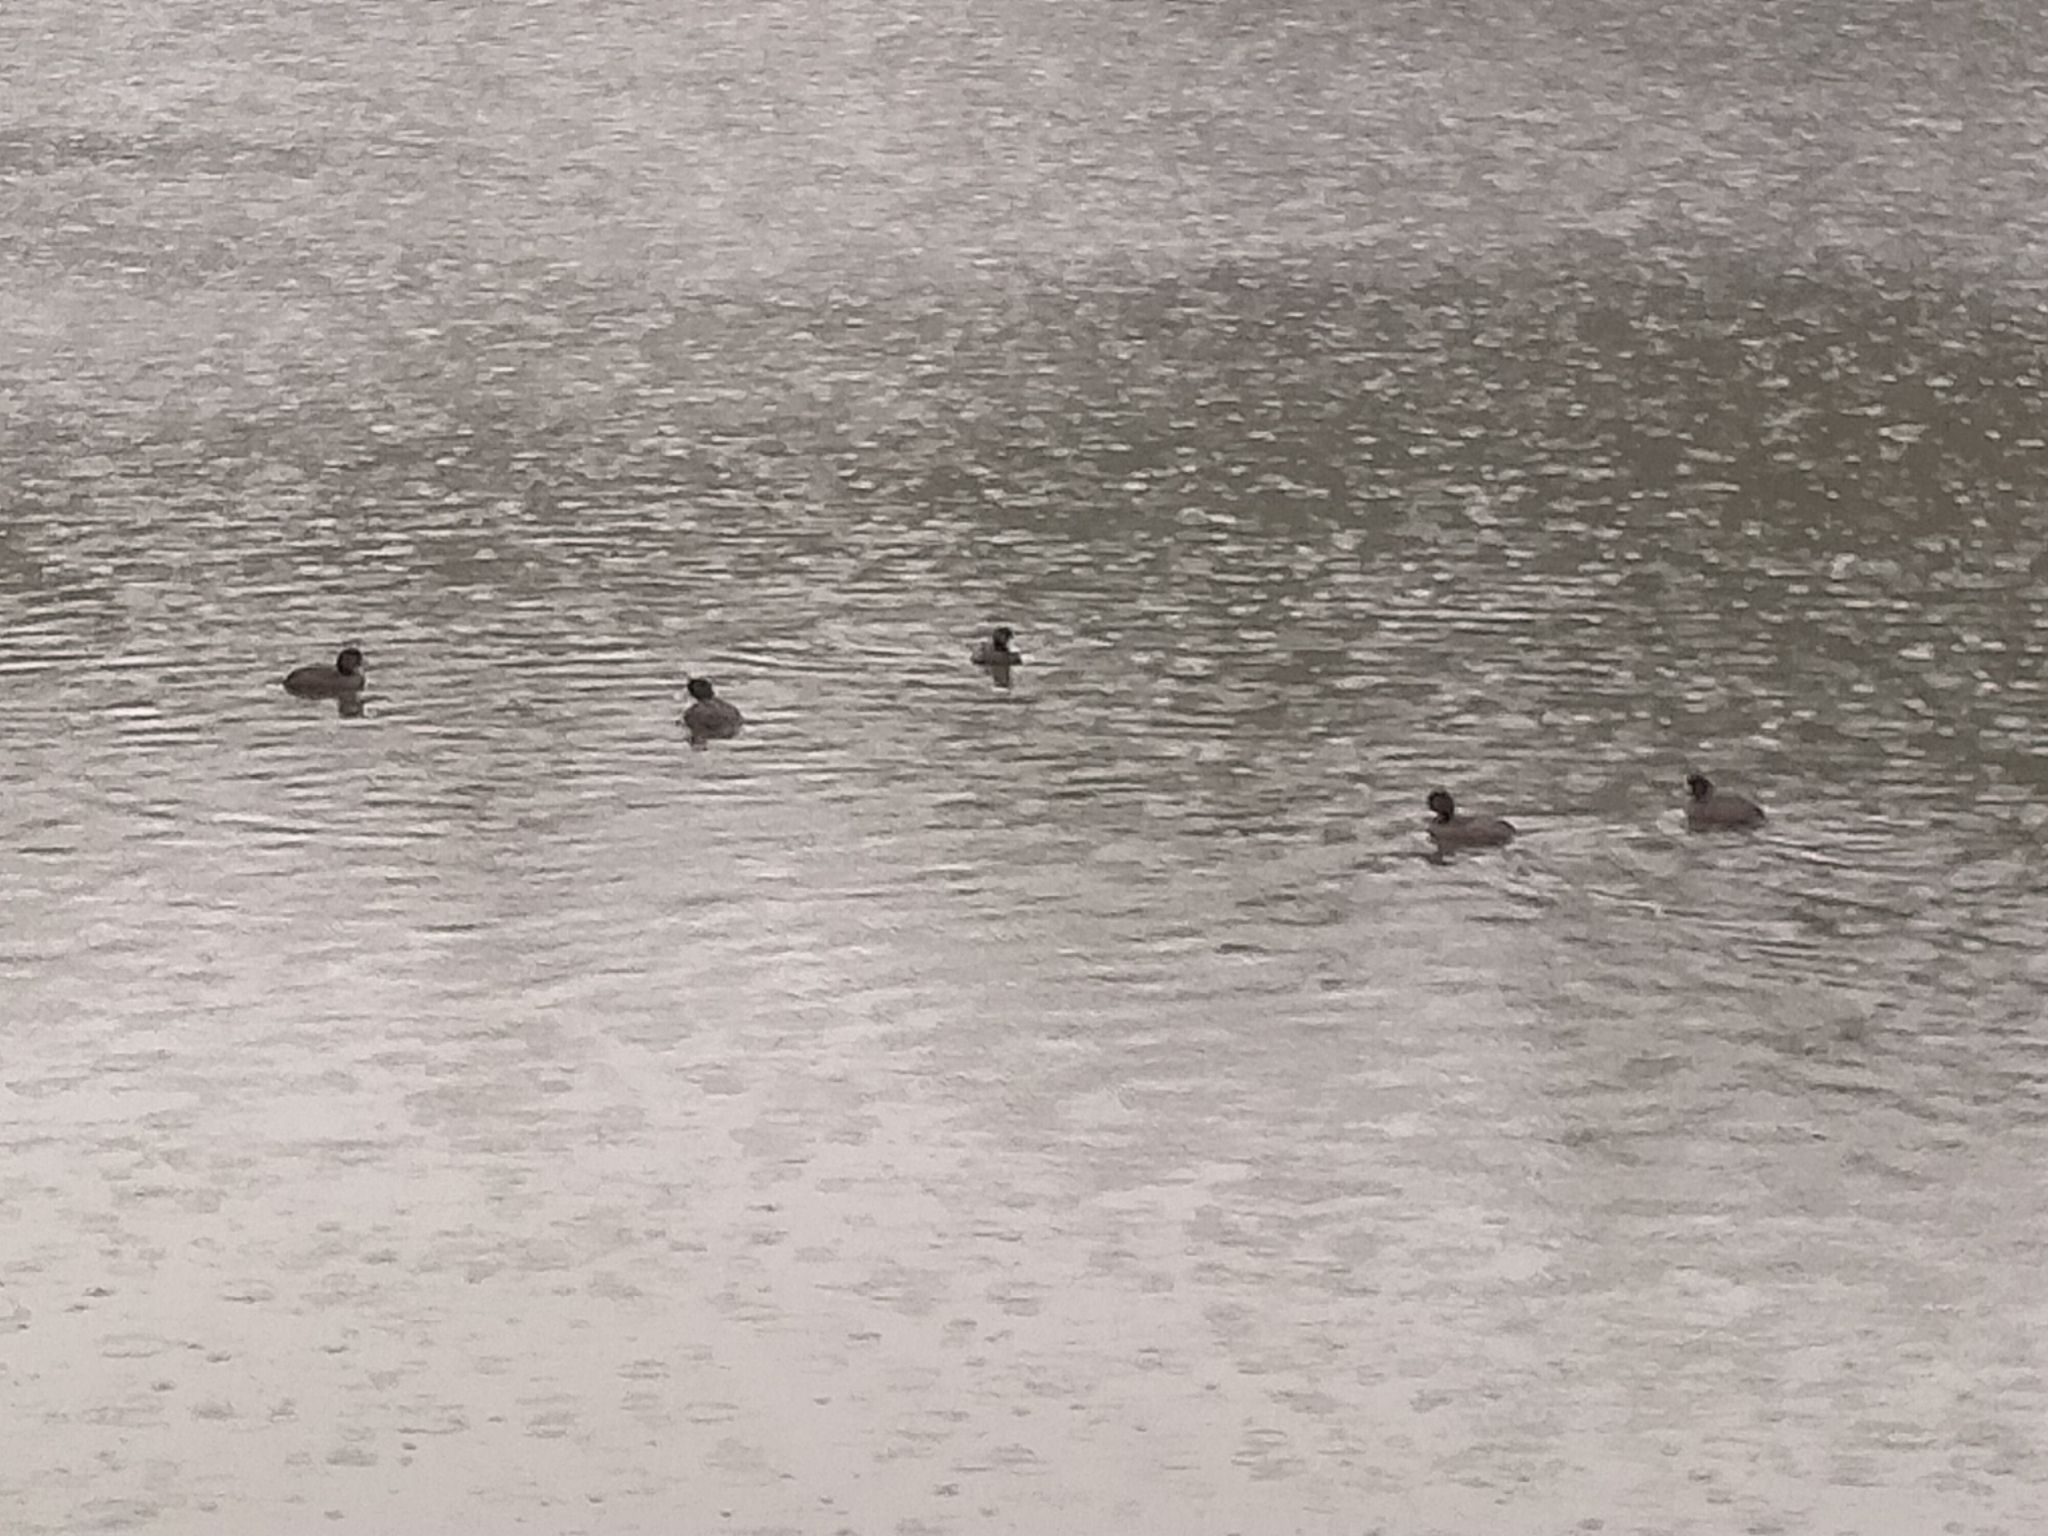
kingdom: Animalia
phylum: Chordata
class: Aves
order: Anseriformes
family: Anatidae
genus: Aythya
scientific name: Aythya novaeseelandiae
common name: New zealand scaup
